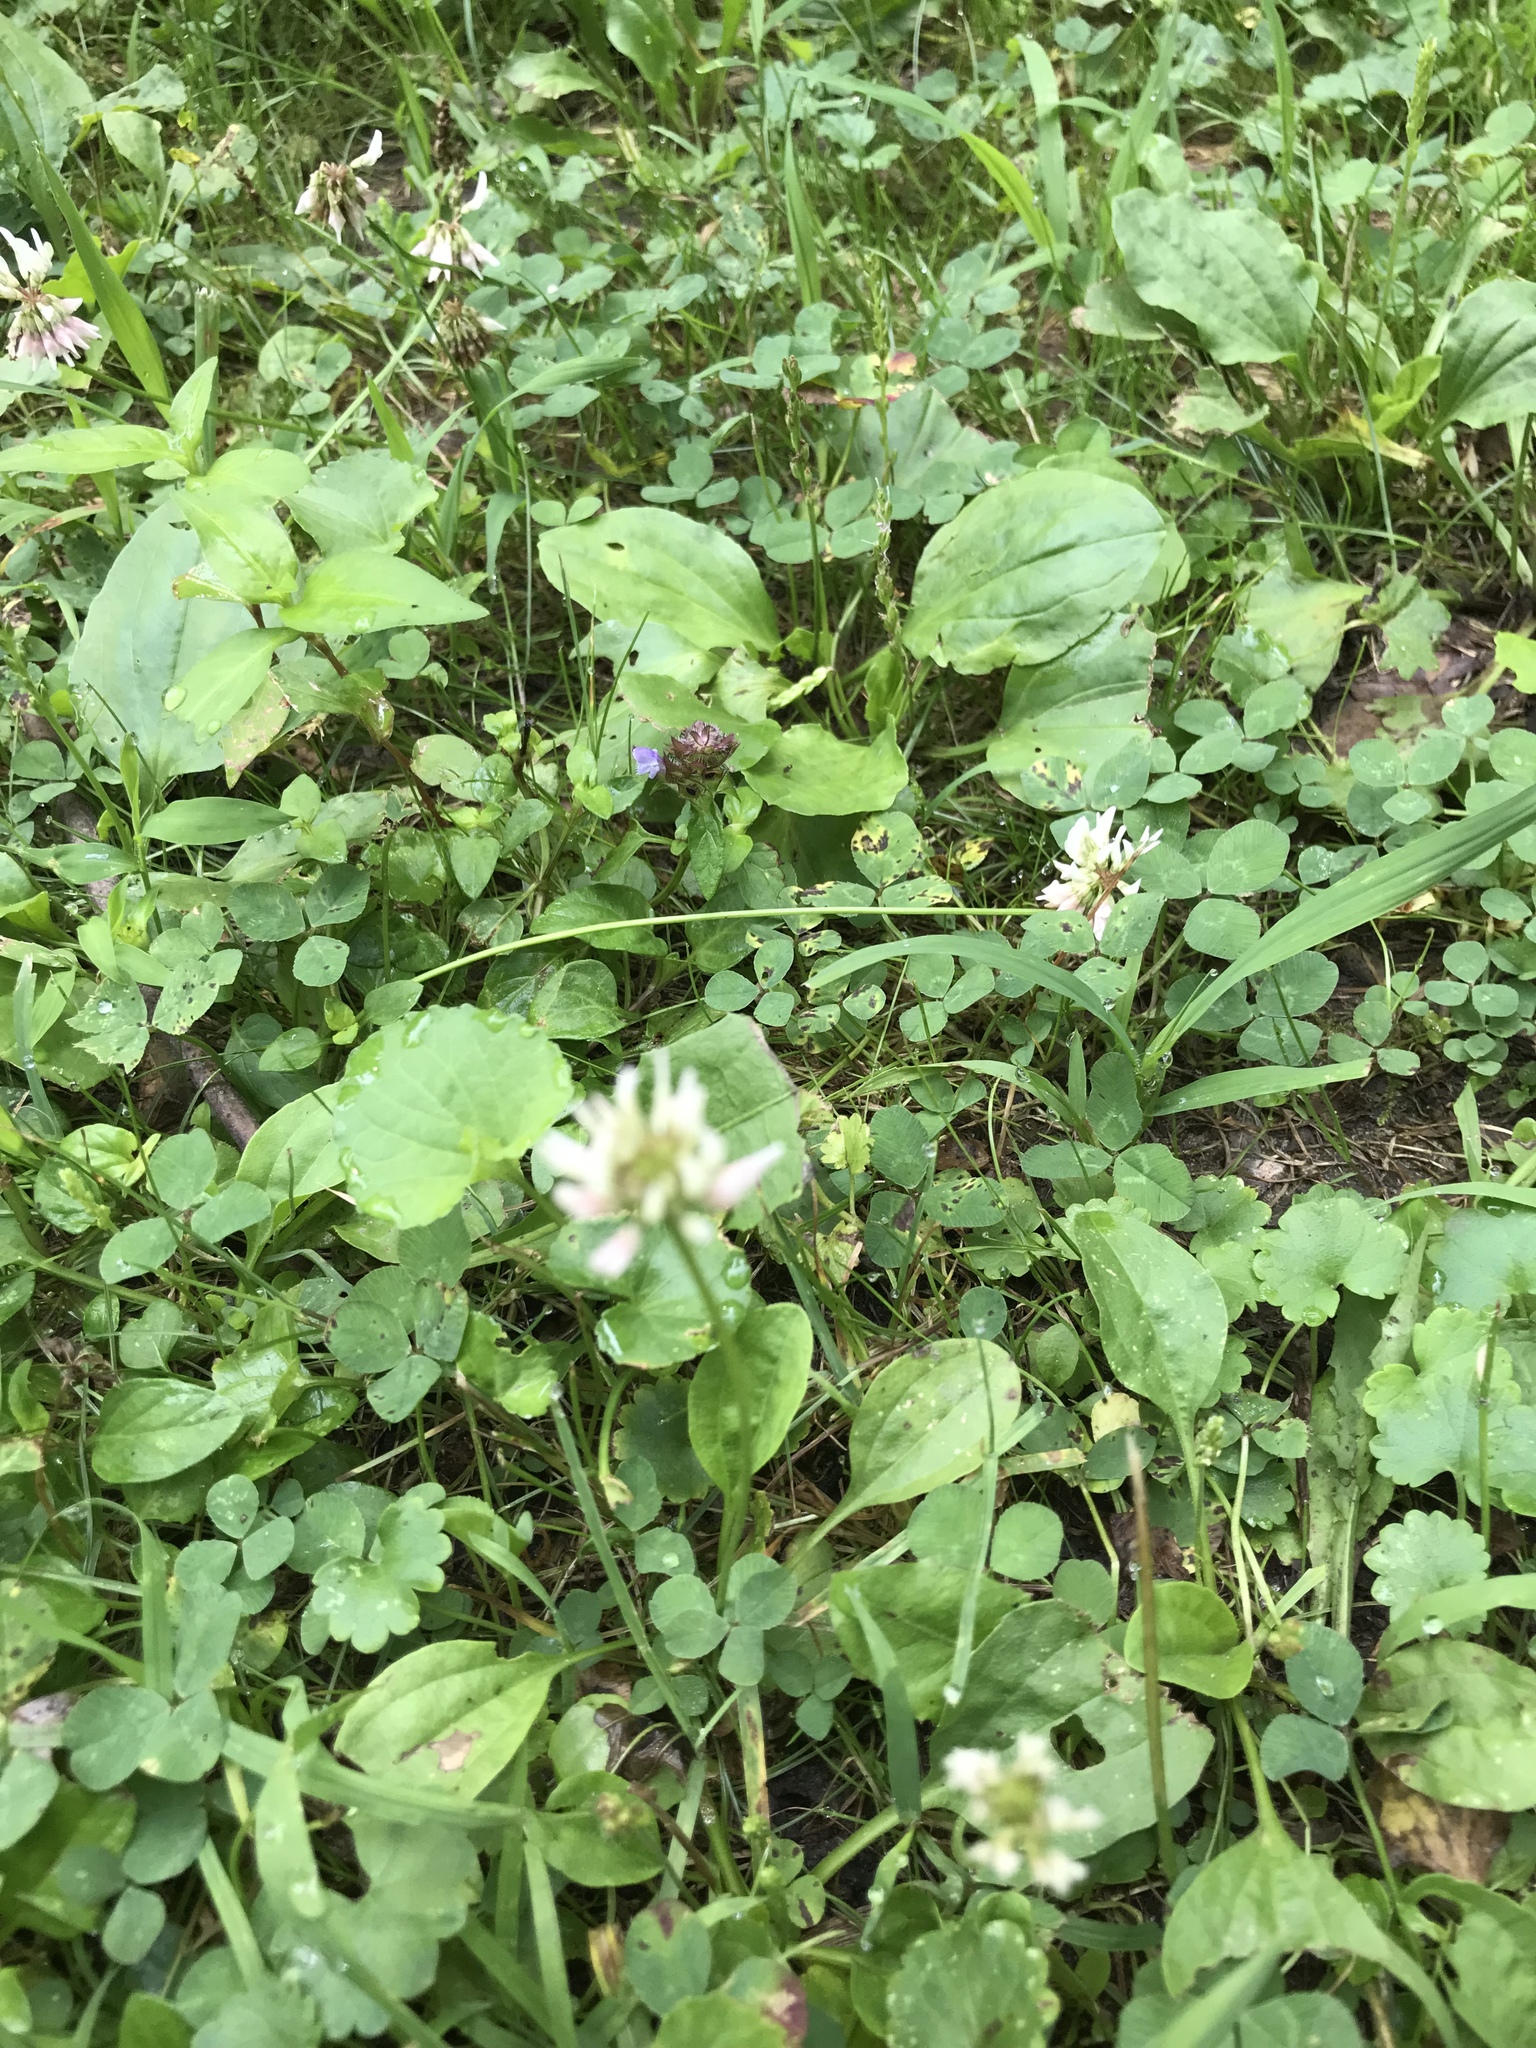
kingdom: Plantae
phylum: Tracheophyta
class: Magnoliopsida
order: Fabales
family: Fabaceae
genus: Trifolium
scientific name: Trifolium repens
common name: White clover
